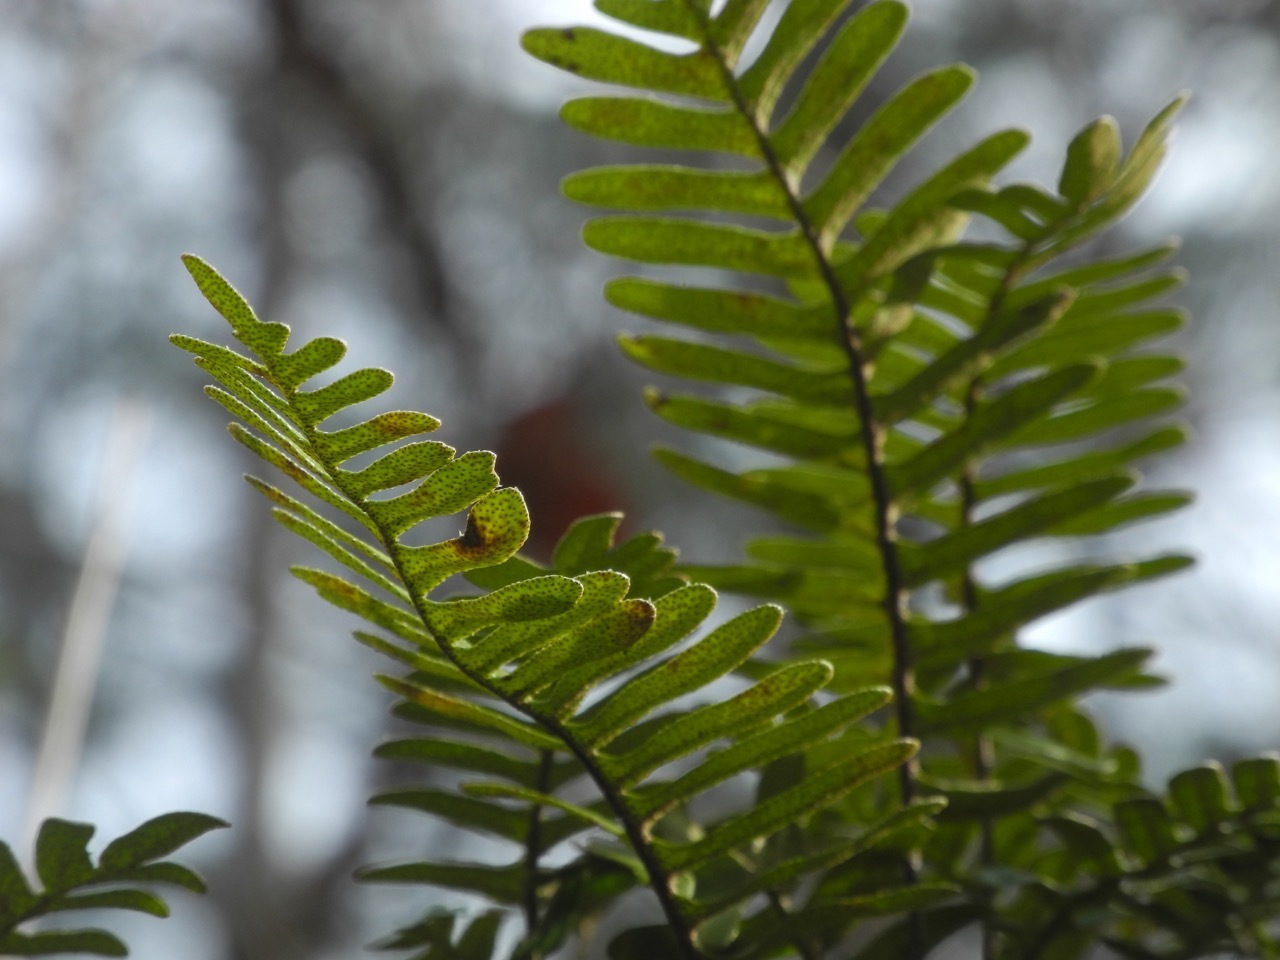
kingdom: Plantae
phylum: Tracheophyta
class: Polypodiopsida
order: Polypodiales
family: Polypodiaceae
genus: Pleopeltis
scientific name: Pleopeltis michauxiana
